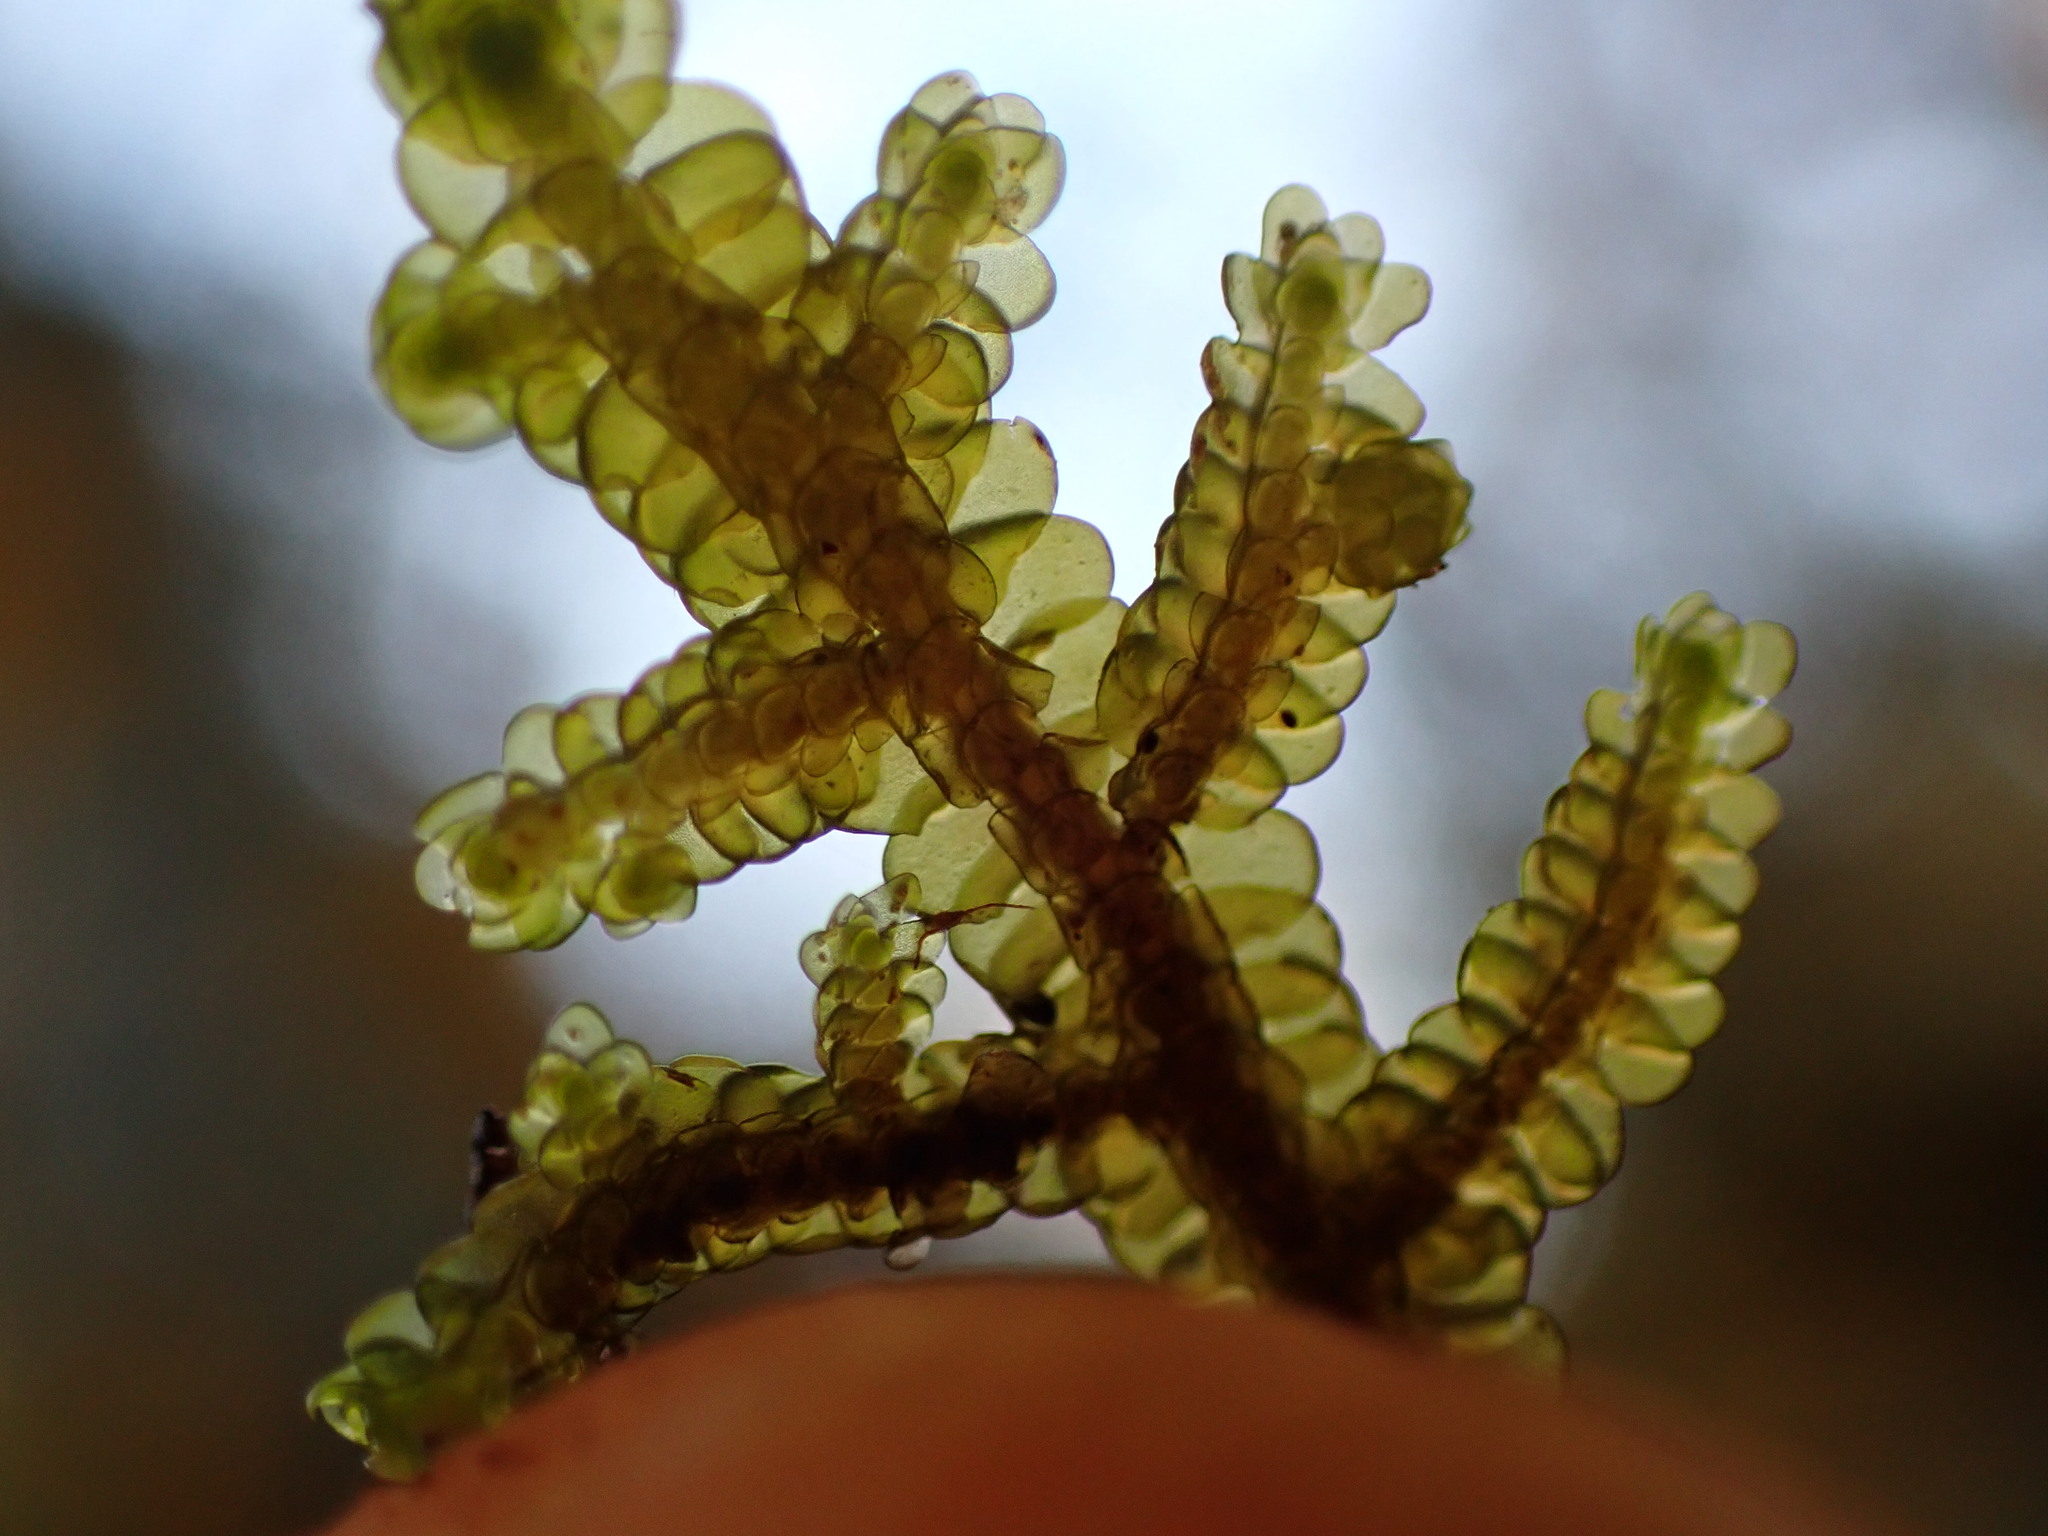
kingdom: Plantae
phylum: Marchantiophyta
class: Jungermanniopsida
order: Porellales
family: Porellaceae
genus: Porella
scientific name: Porella navicularis
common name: Tree ruffle liverwort
